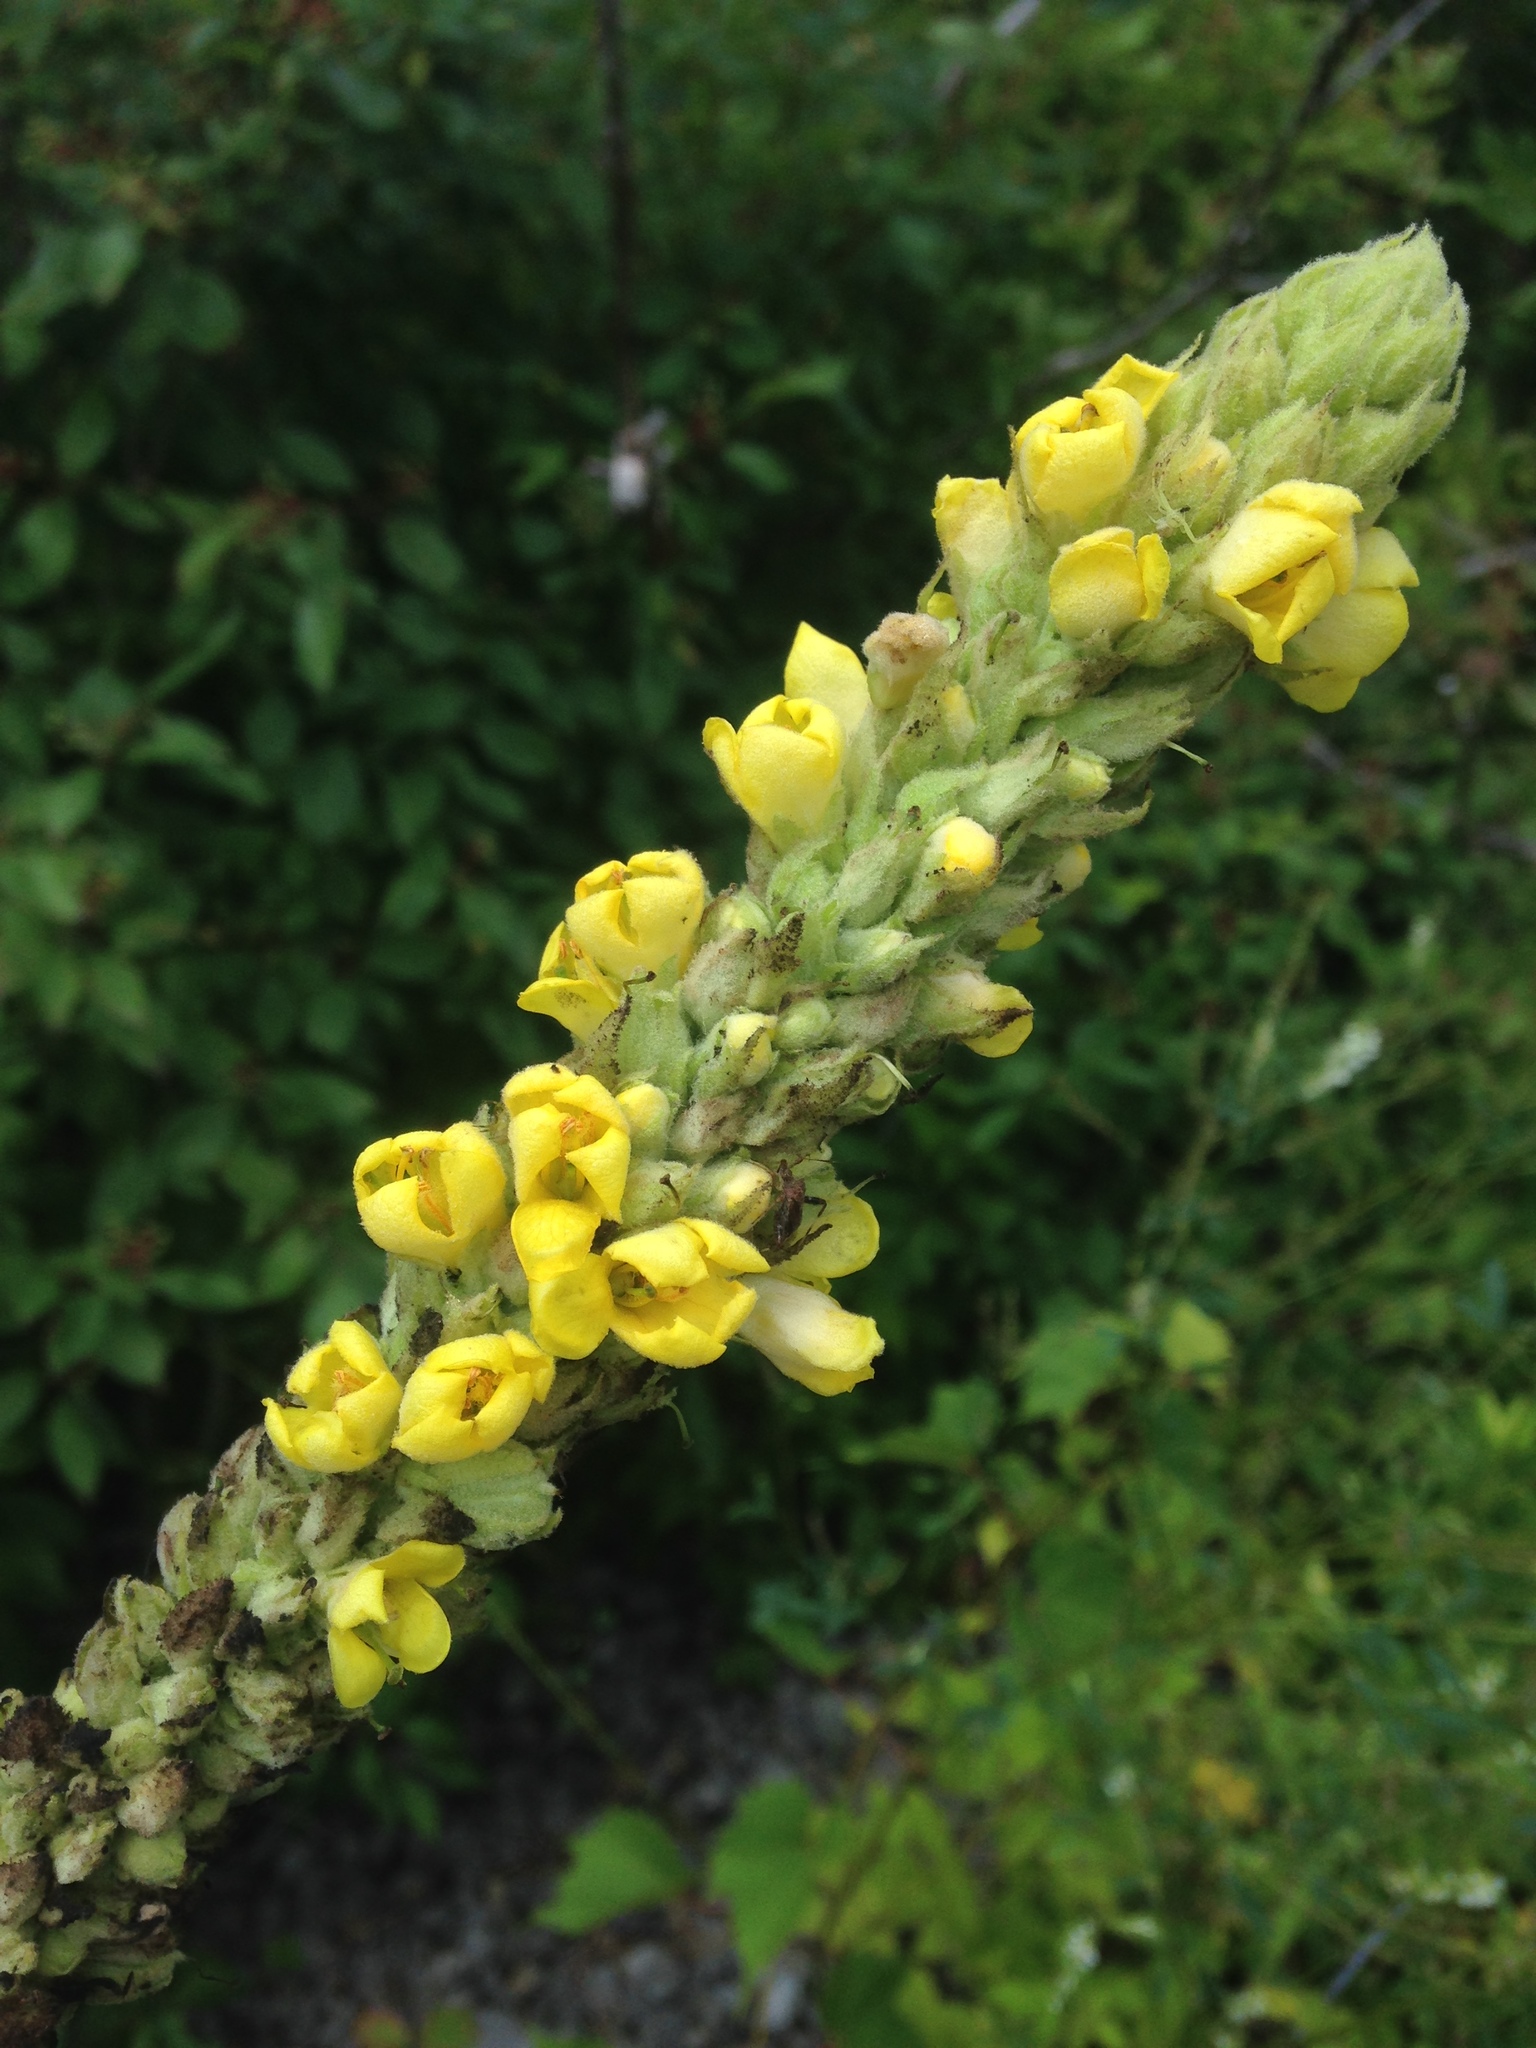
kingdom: Plantae
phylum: Tracheophyta
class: Magnoliopsida
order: Lamiales
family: Scrophulariaceae
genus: Verbascum
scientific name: Verbascum thapsus
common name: Common mullein
